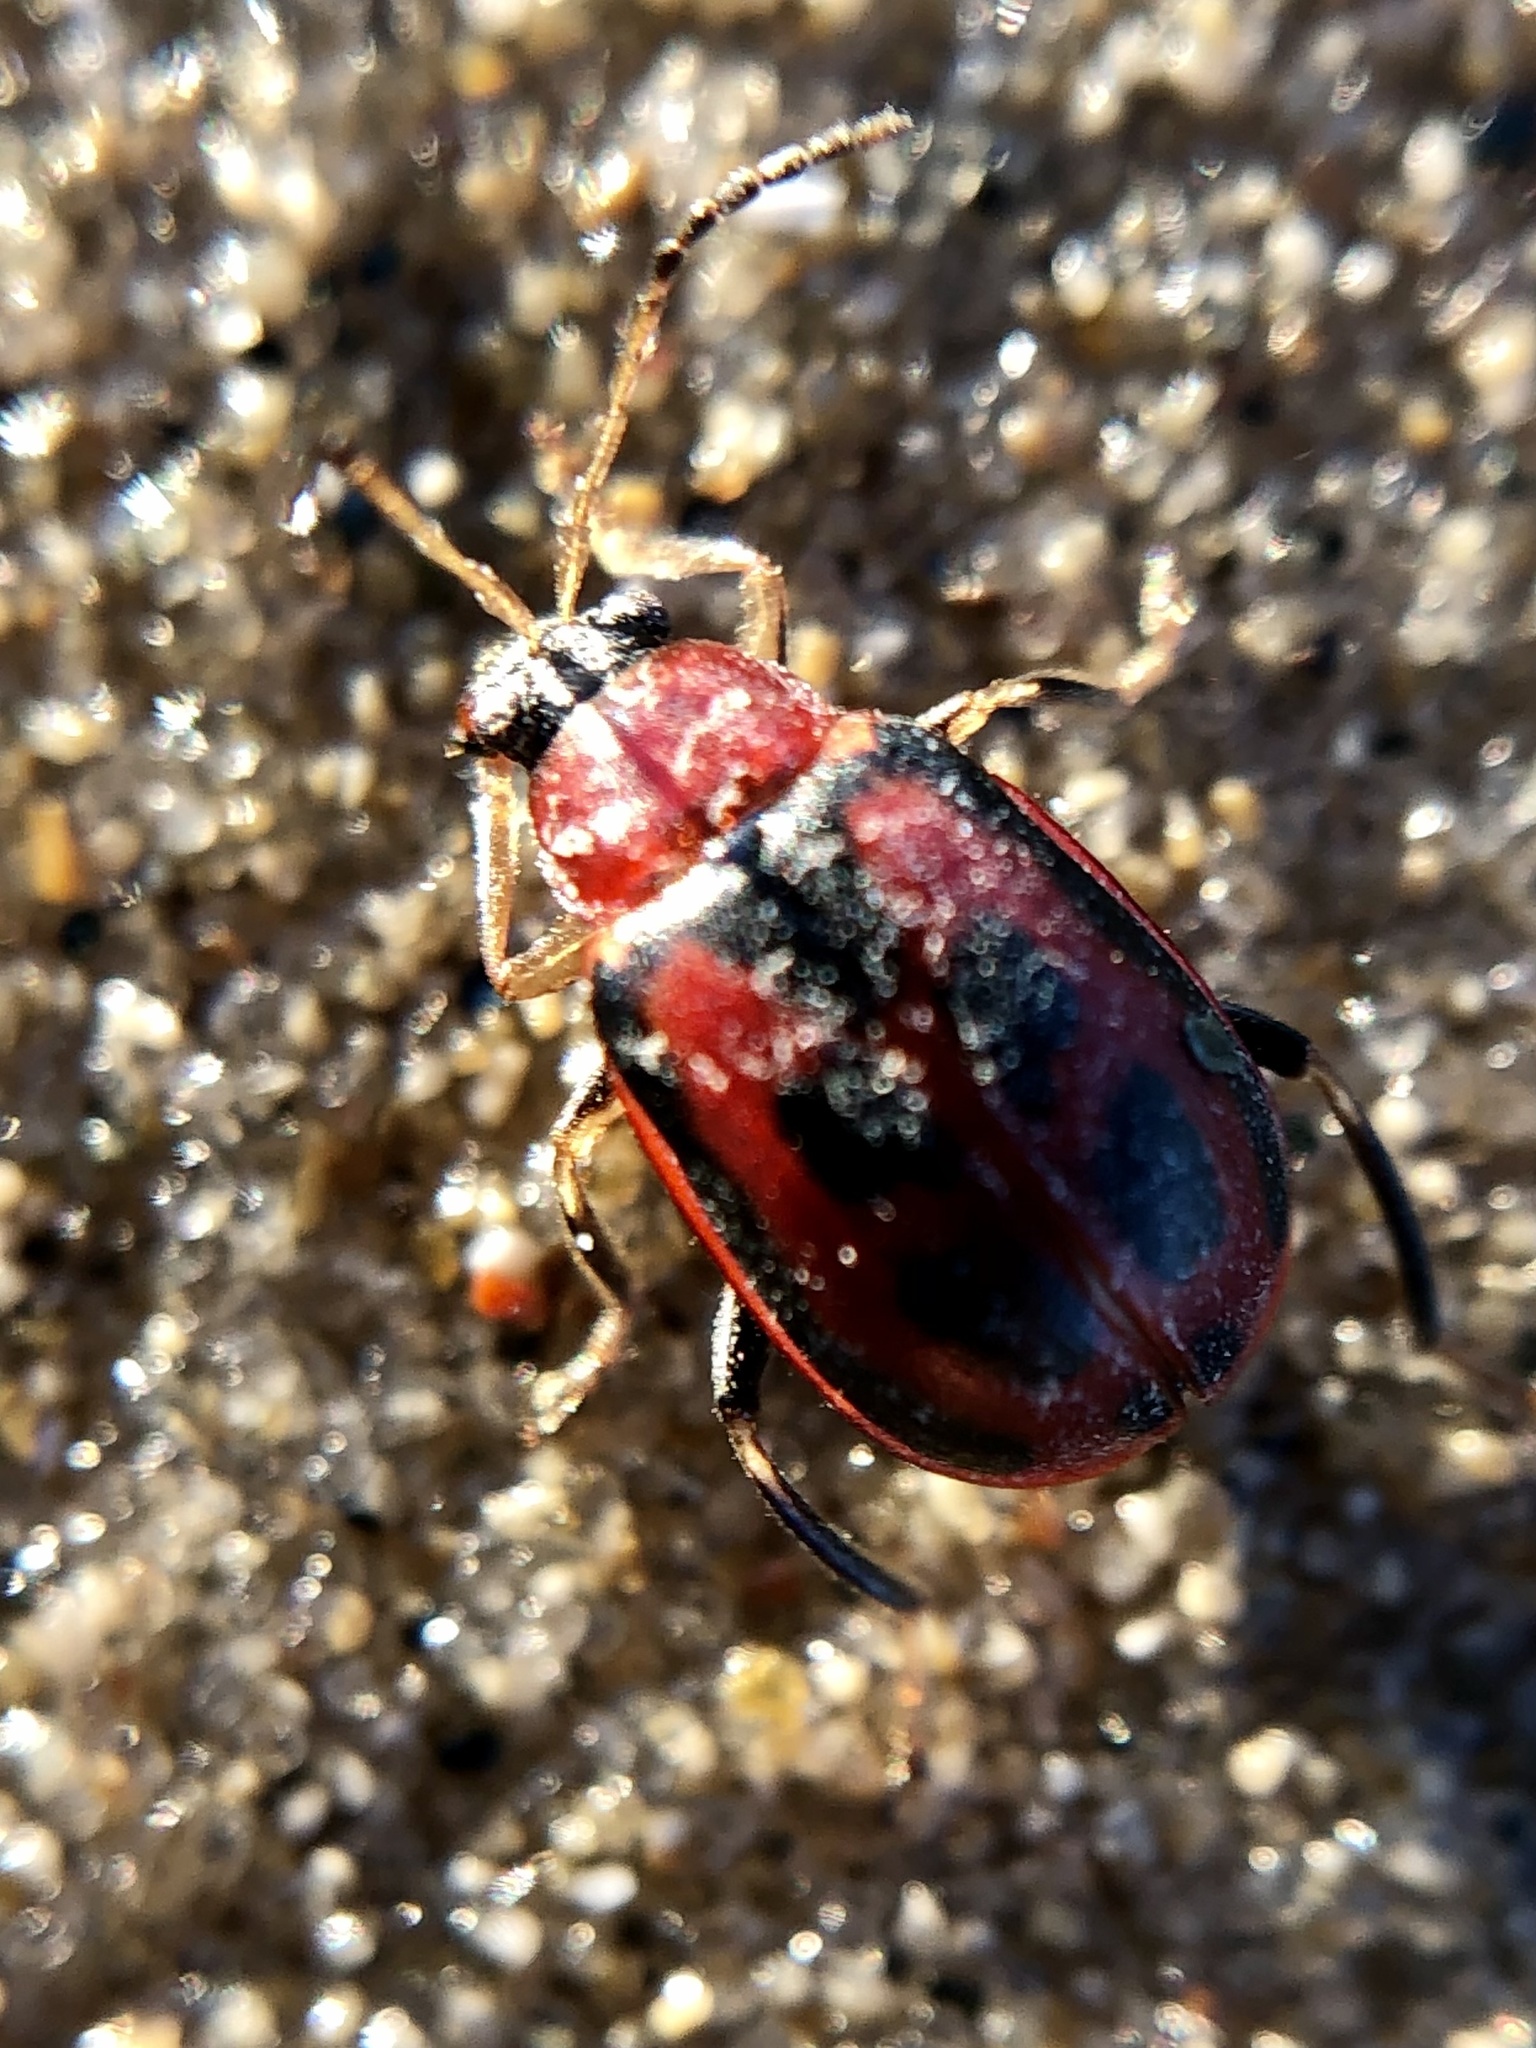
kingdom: Animalia
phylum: Arthropoda
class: Insecta
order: Coleoptera
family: Chrysomelidae
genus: Cerotoma
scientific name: Cerotoma trifurcata
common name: Bean leaf beetle
